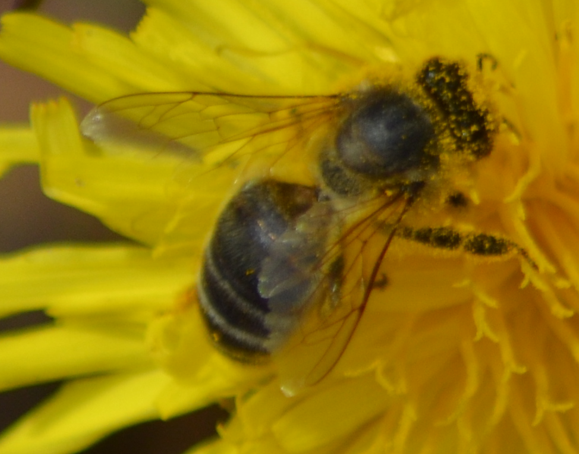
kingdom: Animalia
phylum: Arthropoda
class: Insecta
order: Hymenoptera
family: Apidae
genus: Apis
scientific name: Apis mellifera
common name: Honey bee
